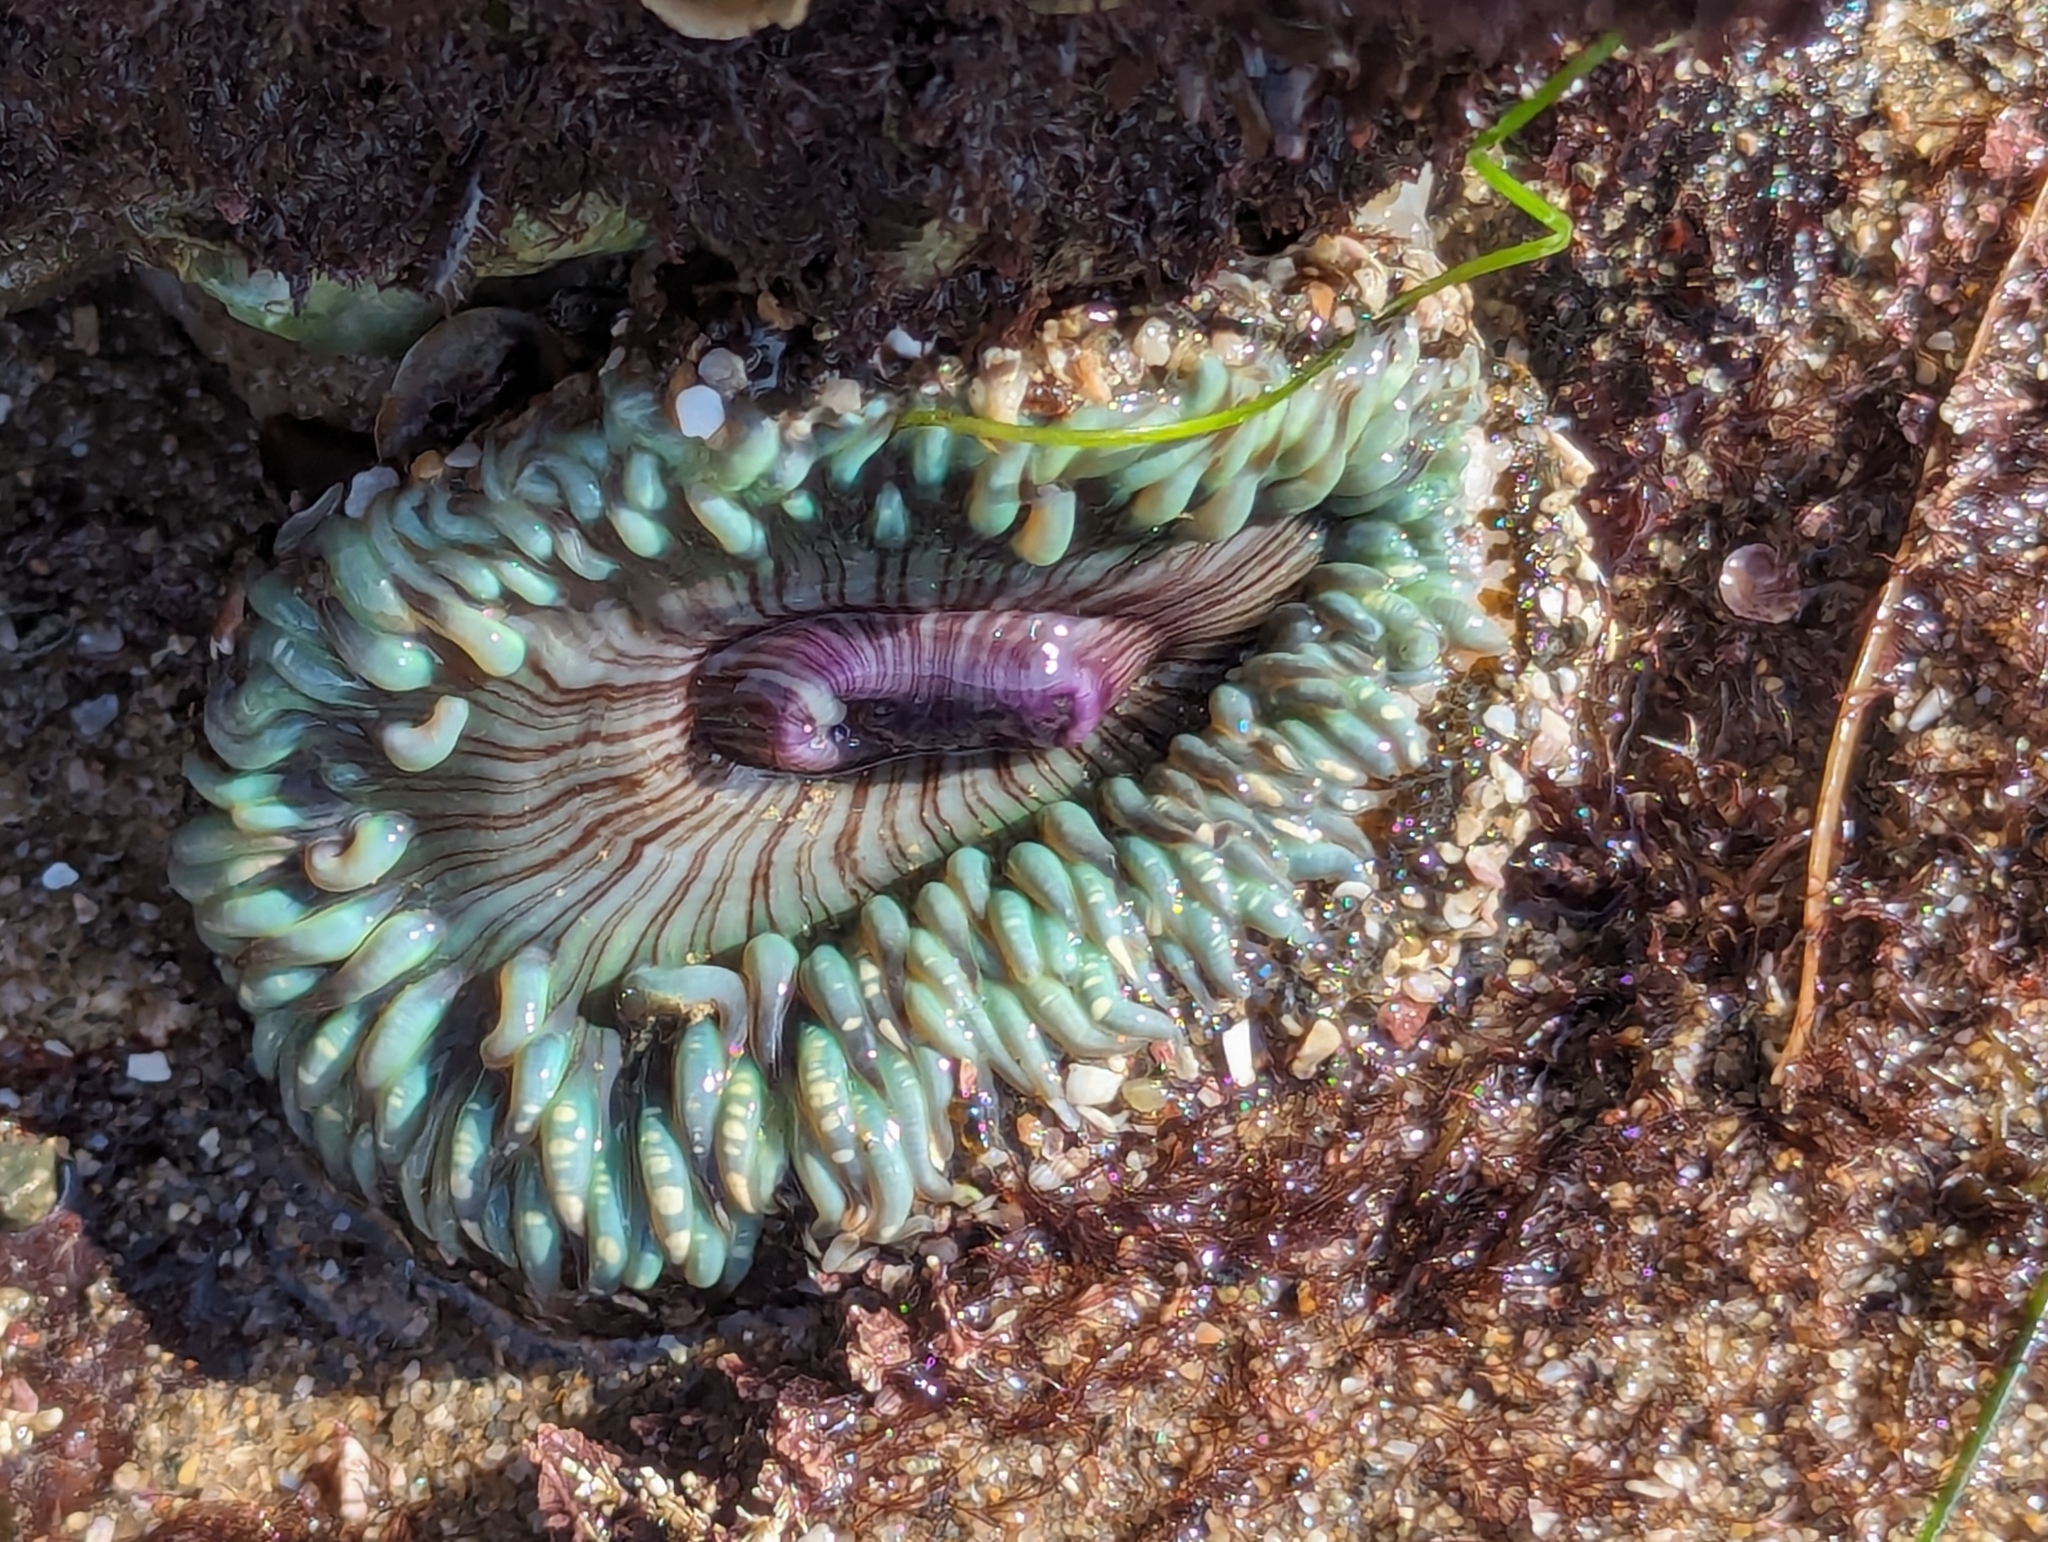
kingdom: Animalia
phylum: Cnidaria
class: Anthozoa
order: Actiniaria
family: Actiniidae
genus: Anthopleura
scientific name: Anthopleura sola
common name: Sun anemone
